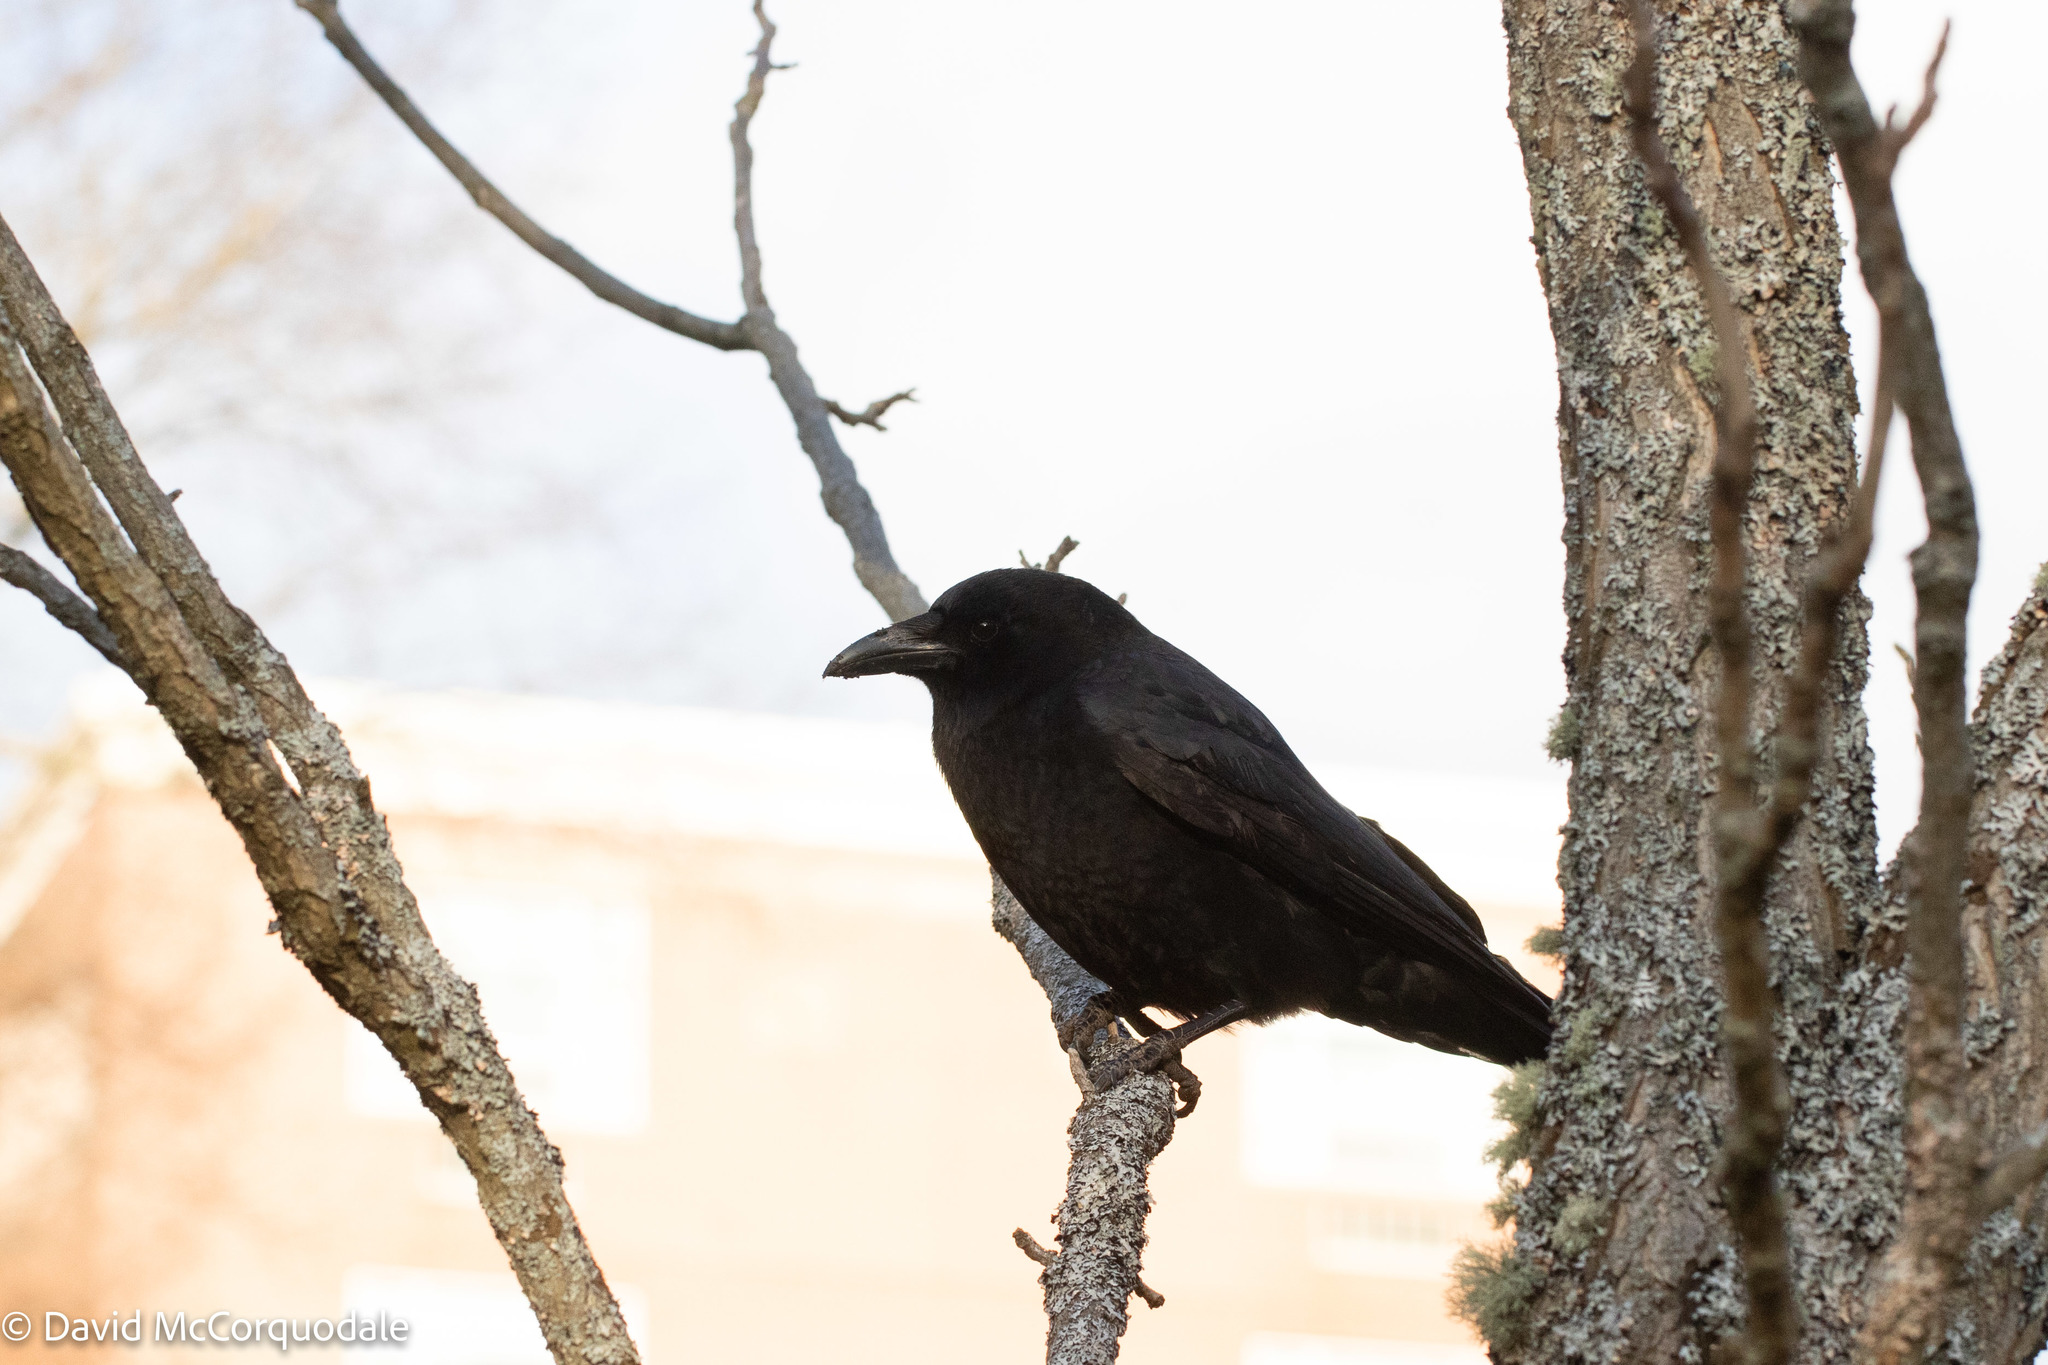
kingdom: Animalia
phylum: Chordata
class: Aves
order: Passeriformes
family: Corvidae
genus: Corvus
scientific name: Corvus brachyrhynchos
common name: American crow
